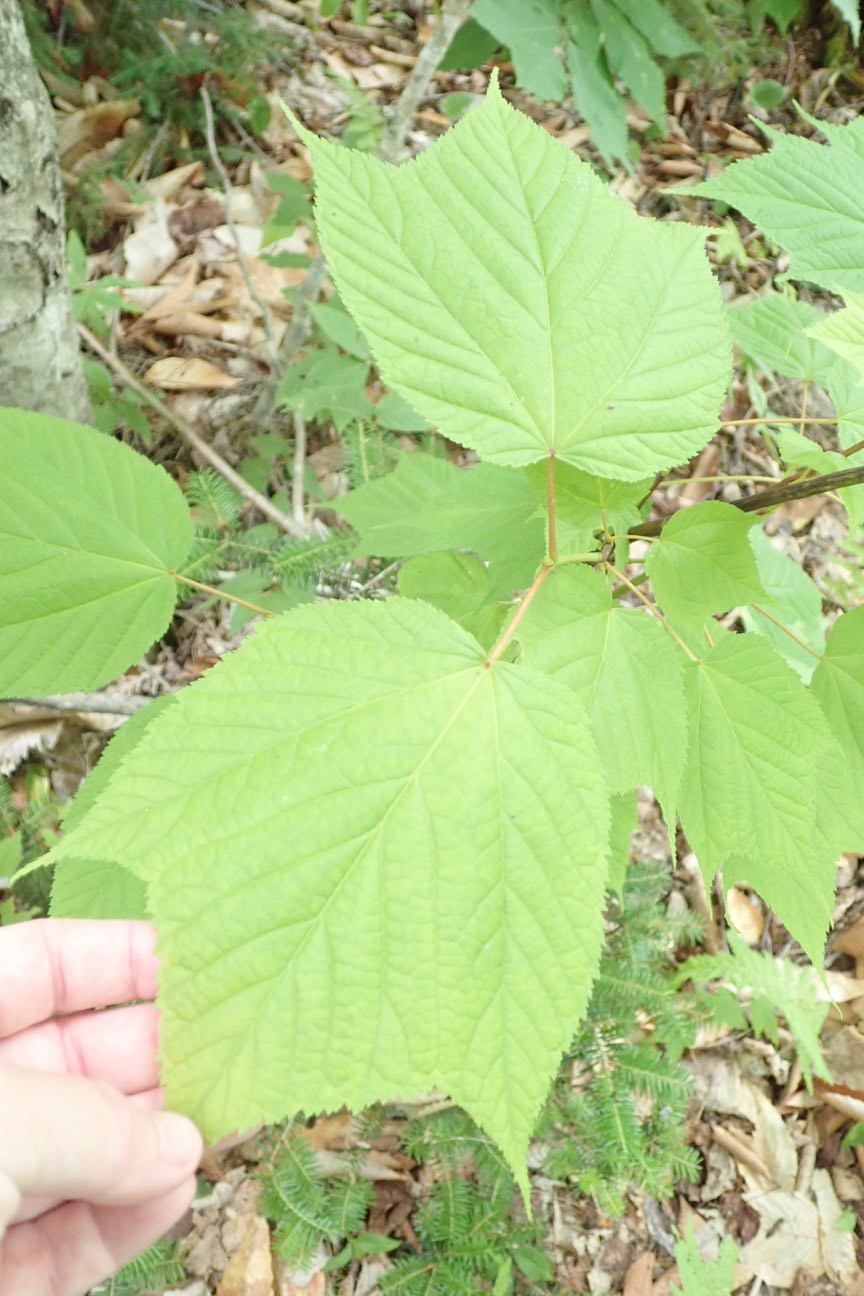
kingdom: Plantae
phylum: Tracheophyta
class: Magnoliopsida
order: Sapindales
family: Sapindaceae
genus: Acer
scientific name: Acer pensylvanicum
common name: Moosewood
